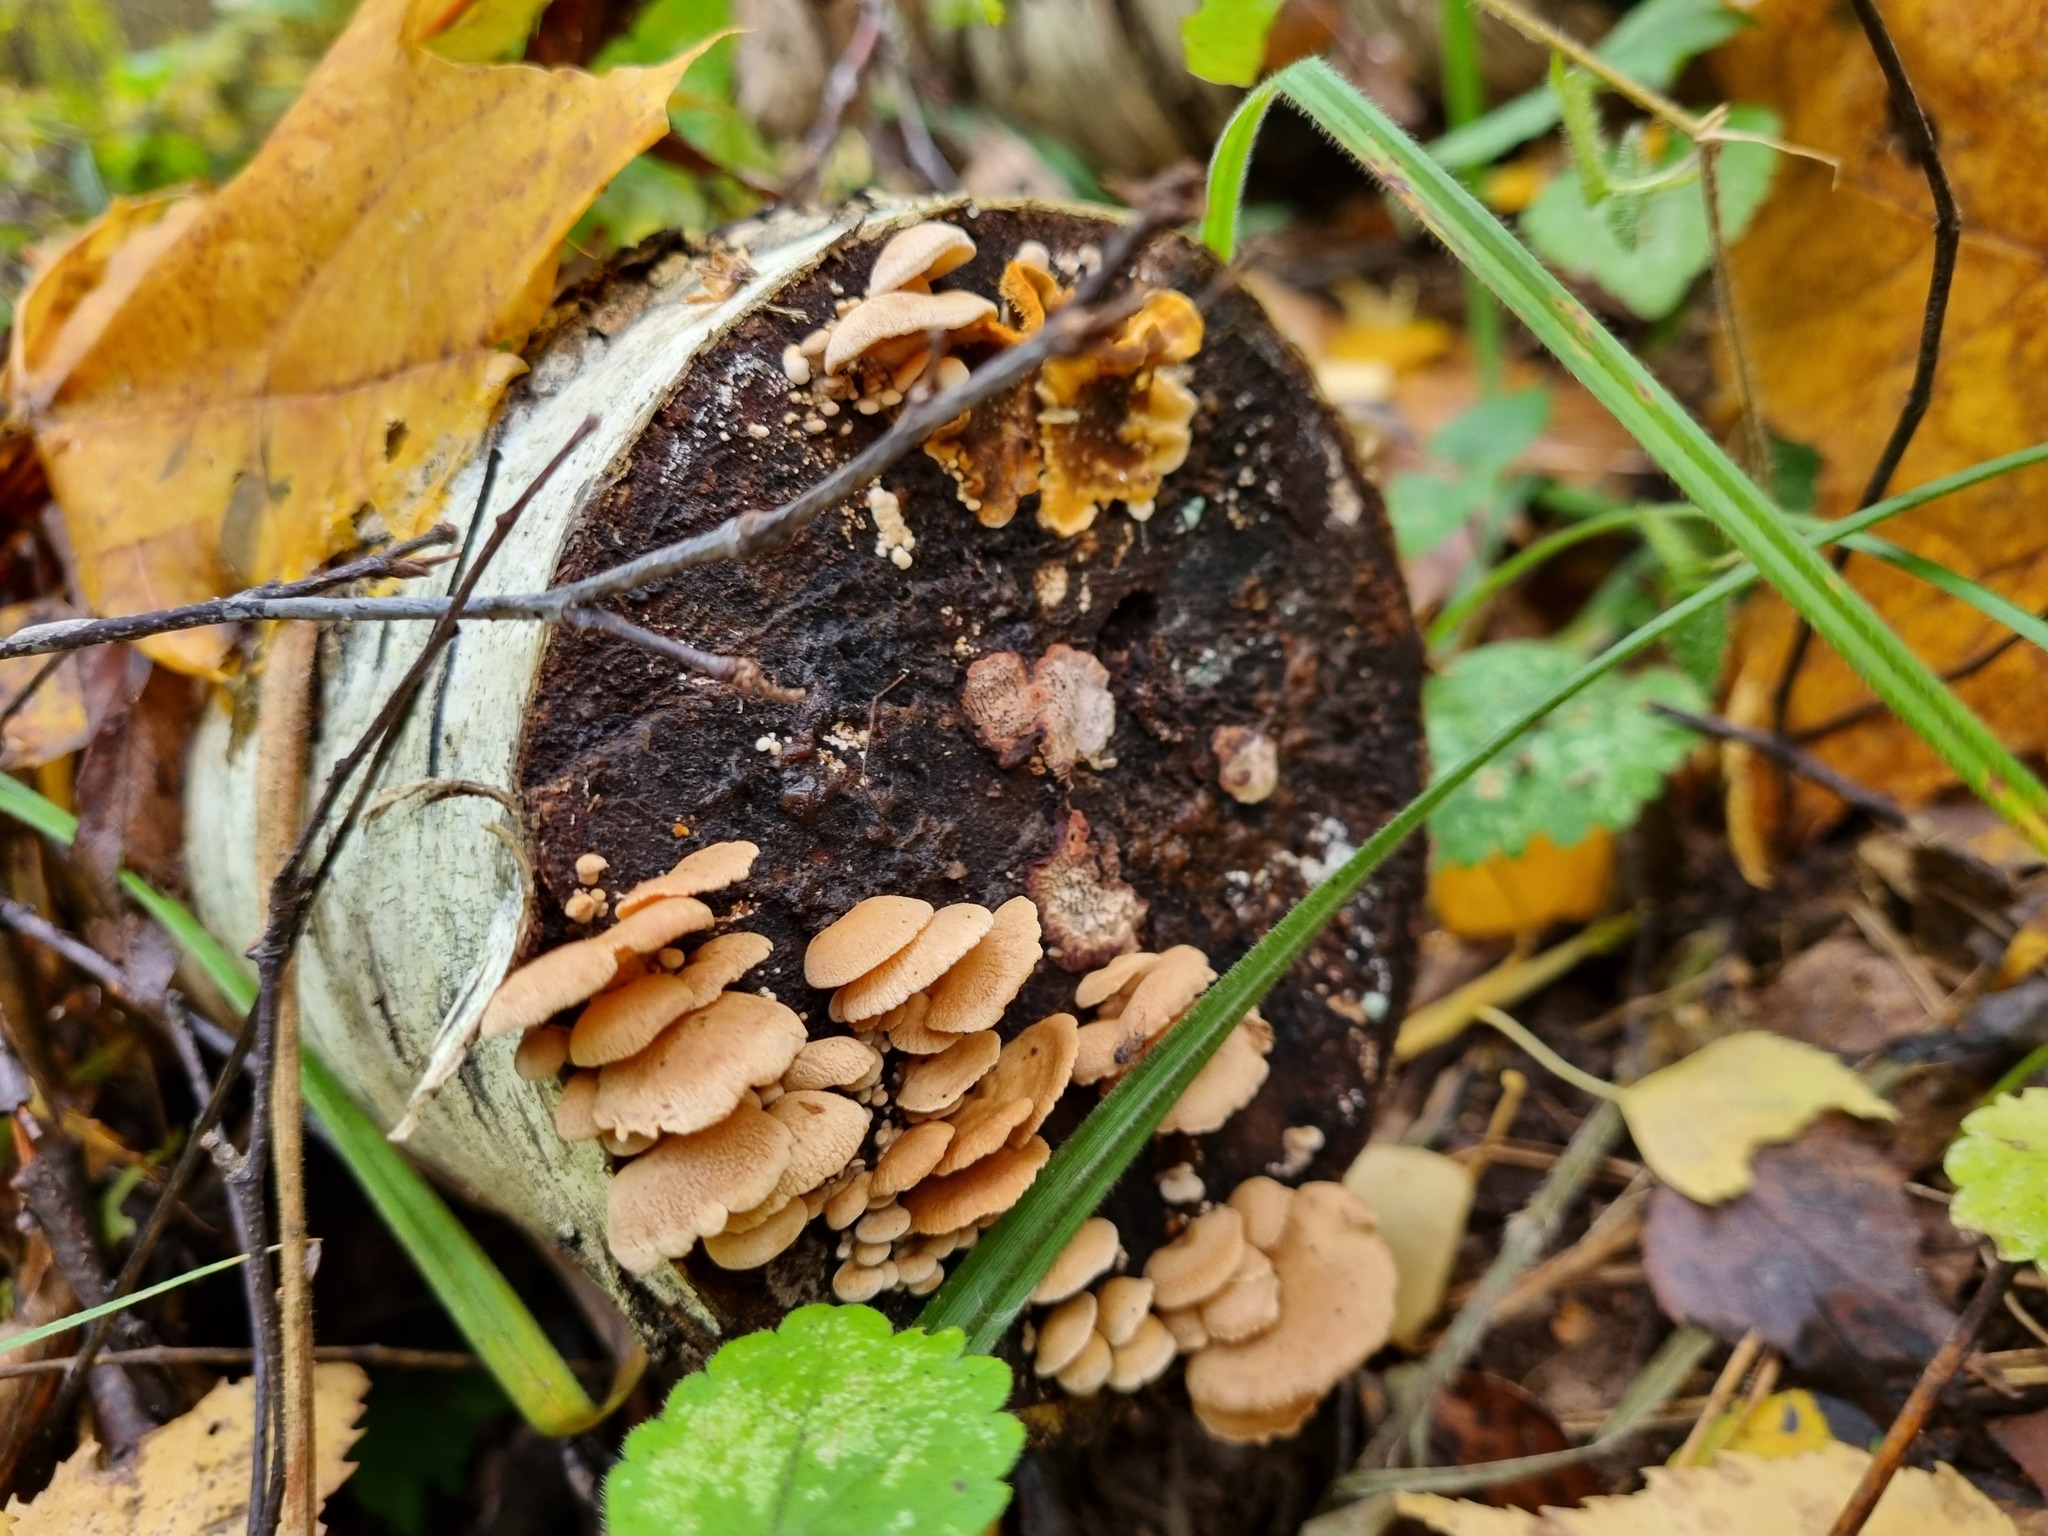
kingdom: Fungi
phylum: Basidiomycota
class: Agaricomycetes
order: Agaricales
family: Mycenaceae
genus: Panellus
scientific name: Panellus stipticus
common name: Bitter oysterling
